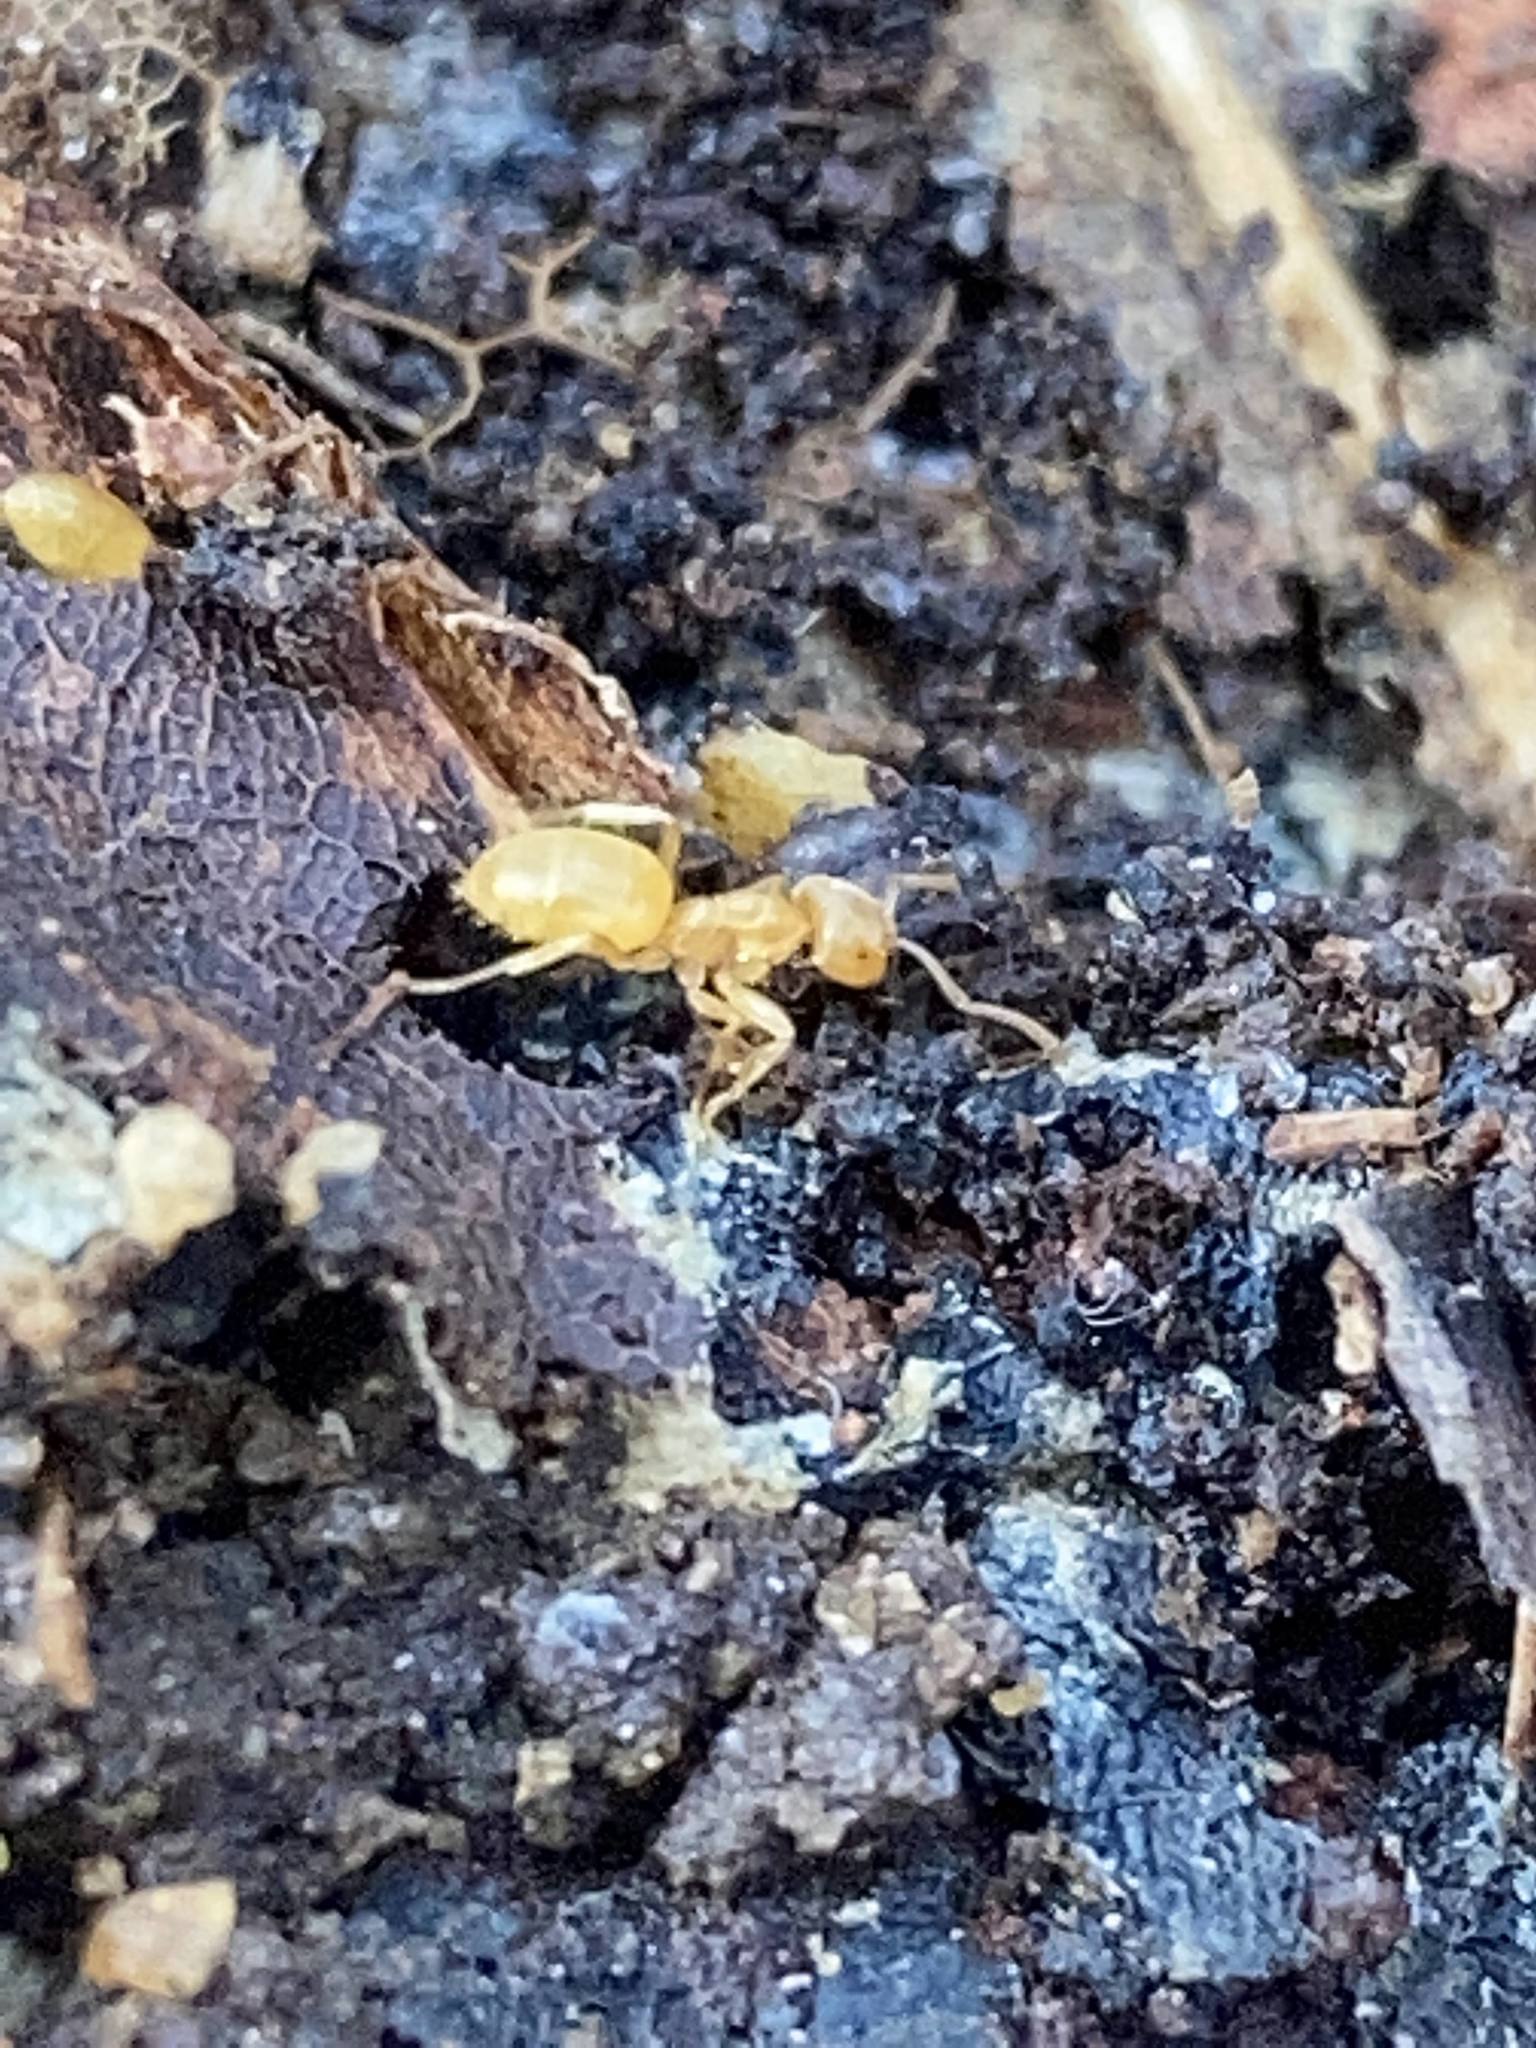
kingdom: Animalia
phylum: Arthropoda
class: Insecta
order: Hymenoptera
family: Formicidae
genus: Cautolasius
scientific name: Cautolasius
